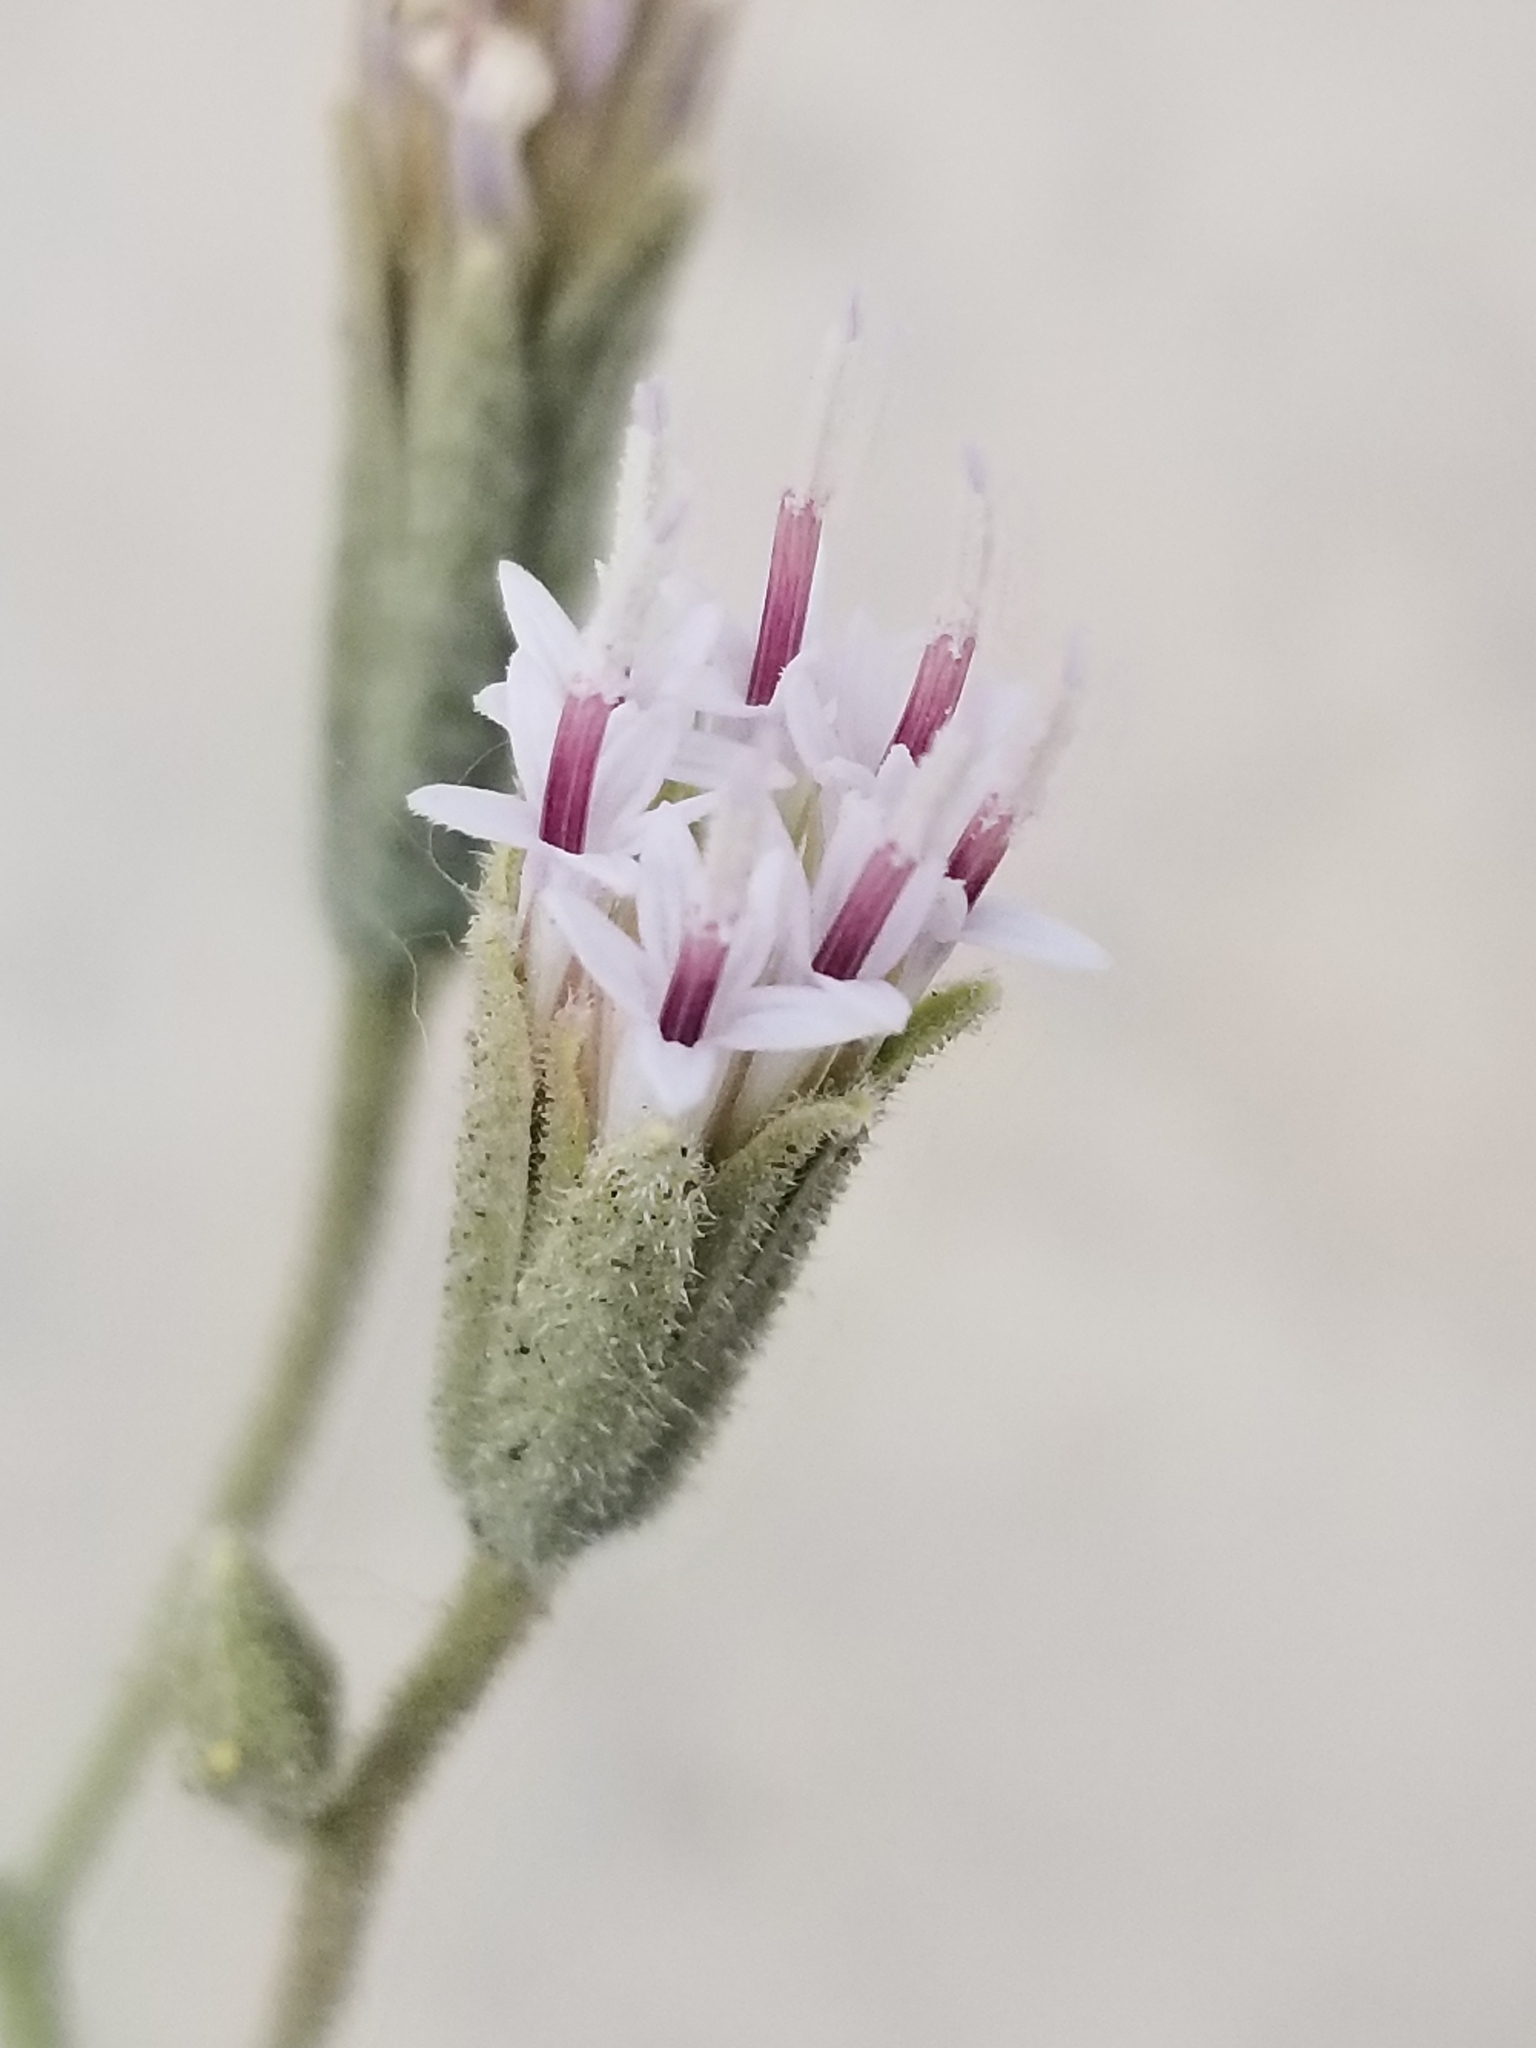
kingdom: Plantae
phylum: Tracheophyta
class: Magnoliopsida
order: Asterales
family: Asteraceae
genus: Palafoxia
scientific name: Palafoxia arida
